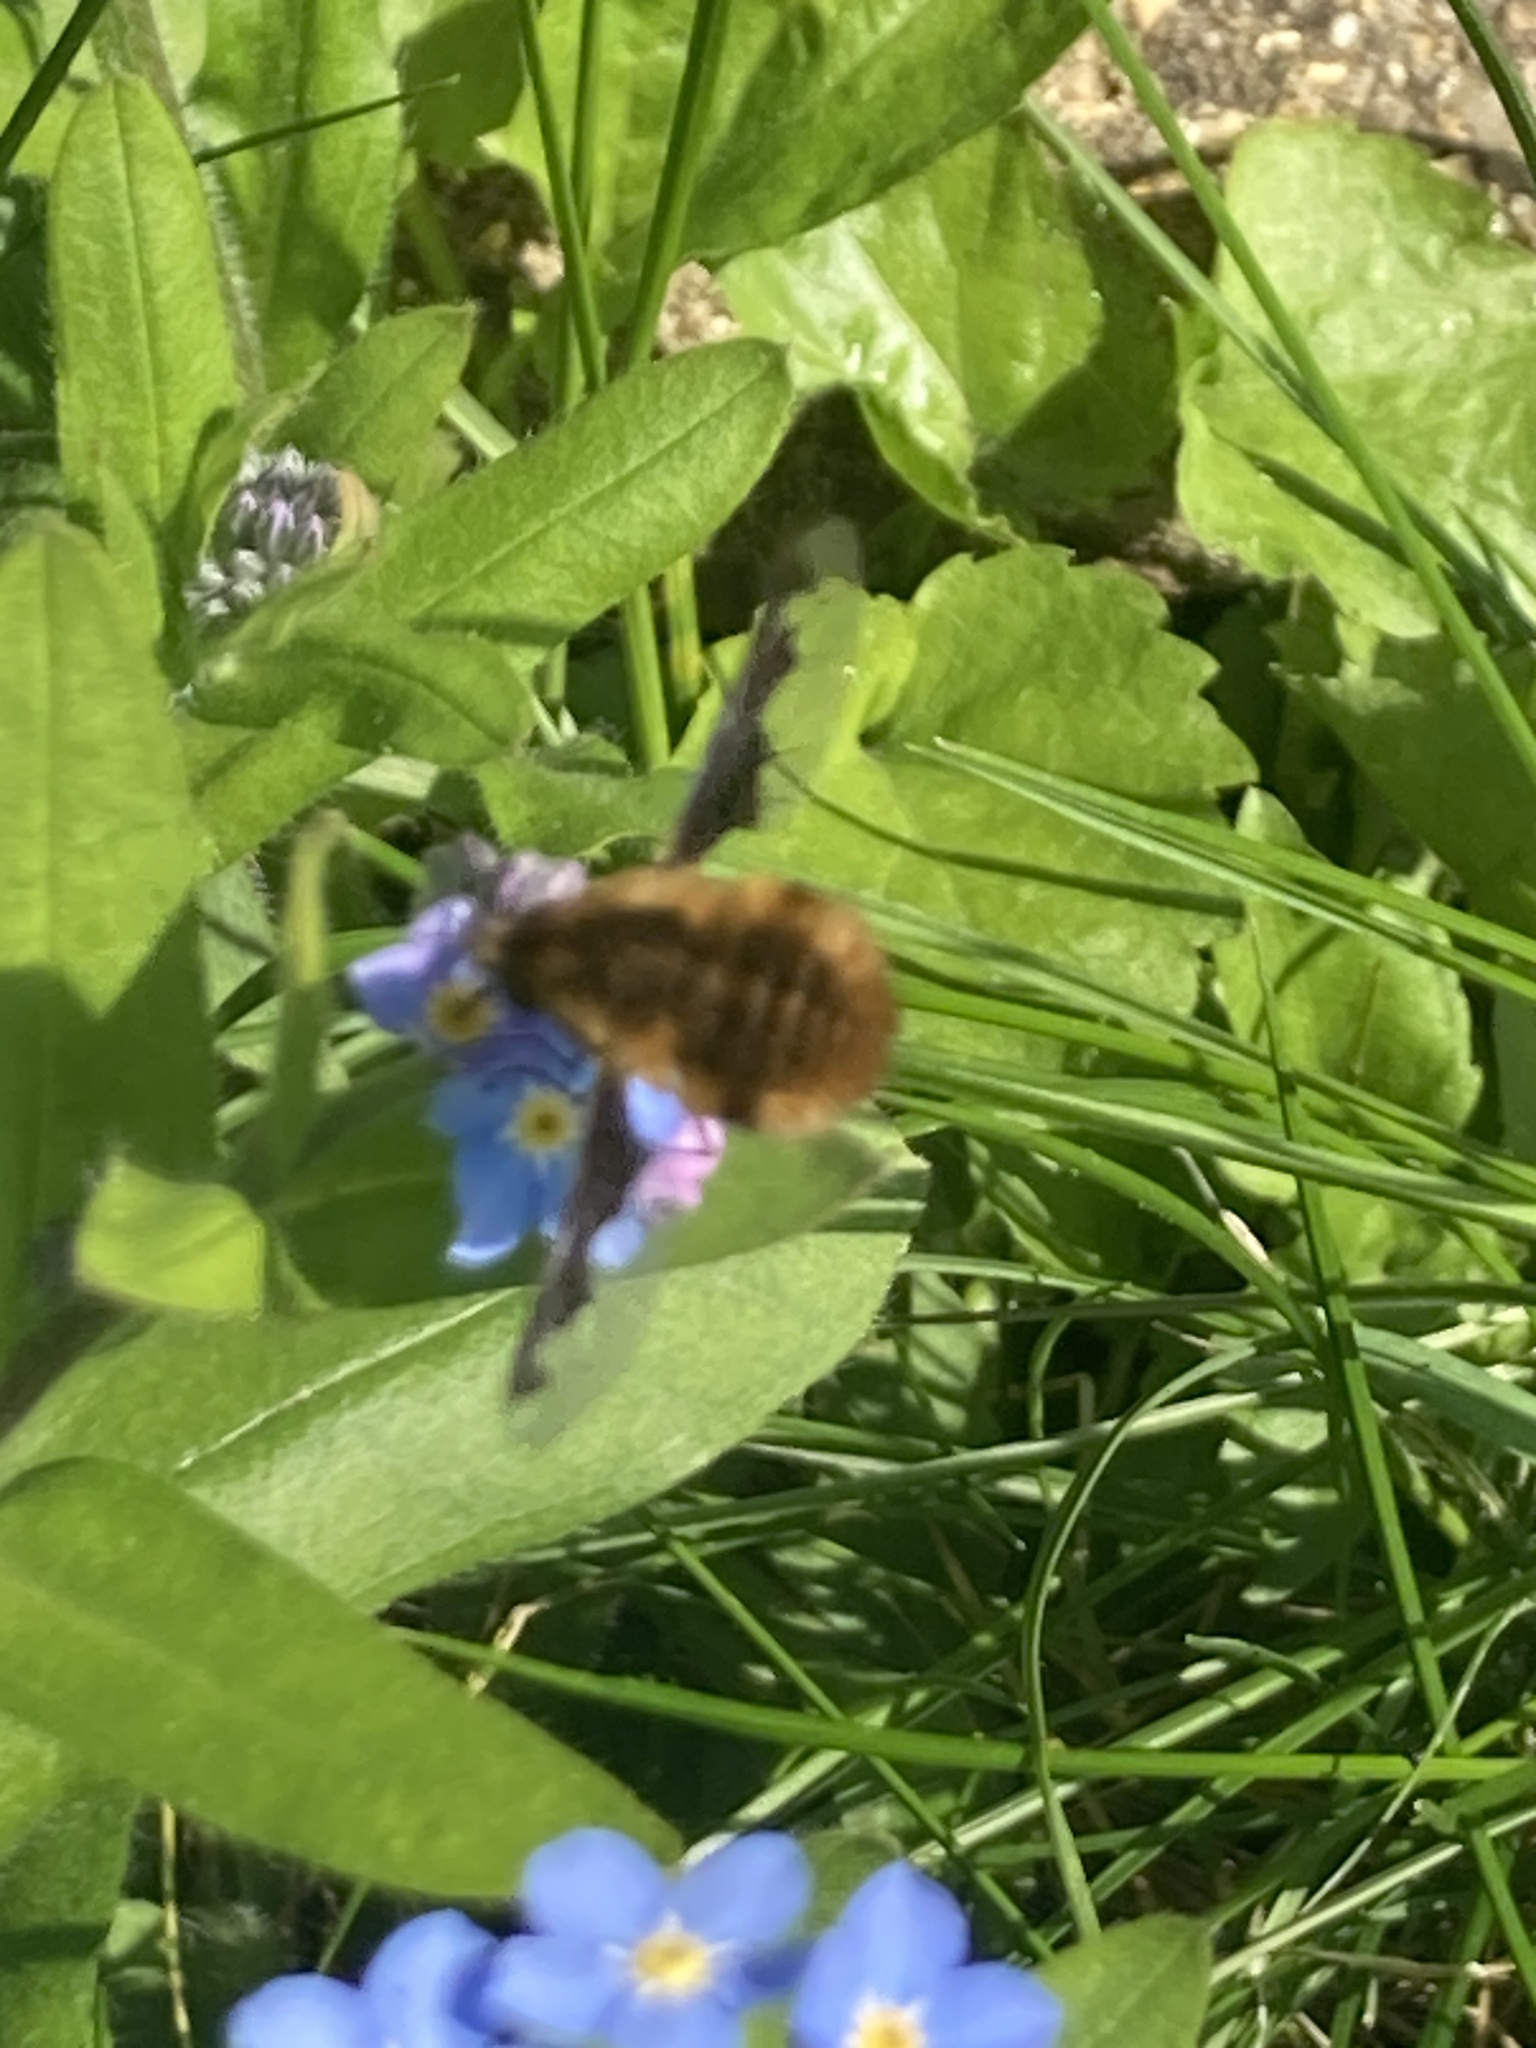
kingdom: Animalia
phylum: Arthropoda
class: Insecta
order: Diptera
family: Bombyliidae
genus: Bombylius
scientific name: Bombylius major
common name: Bee fly
